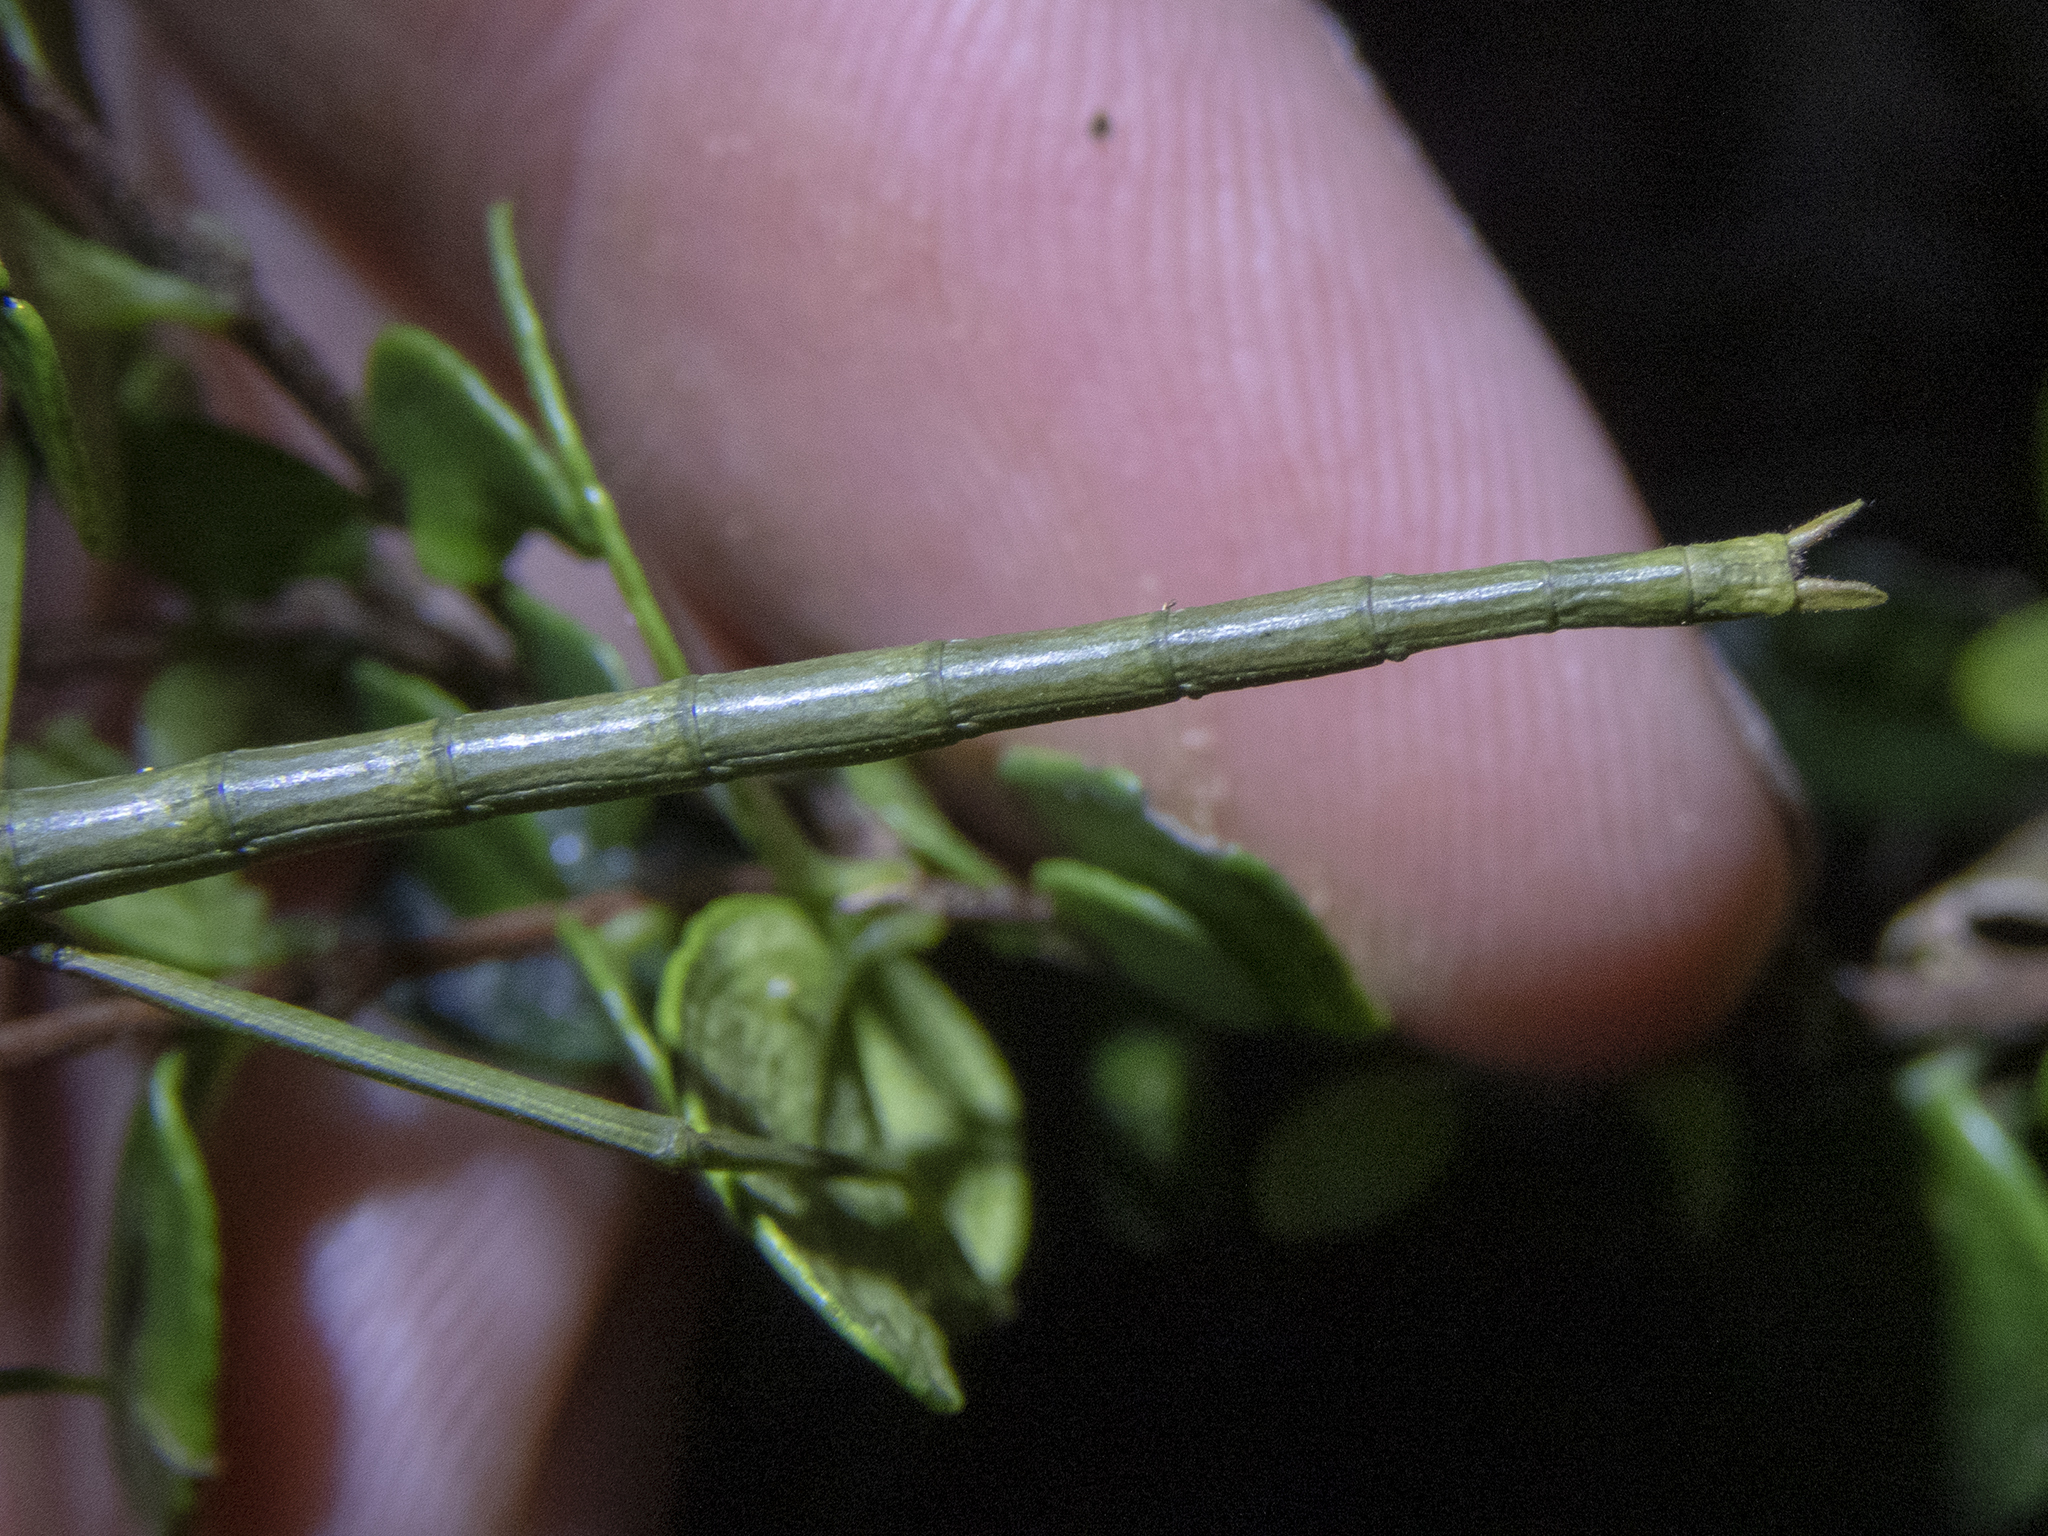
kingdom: Animalia
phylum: Arthropoda
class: Insecta
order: Phasmida
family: Phasmatidae
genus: Clitarchus
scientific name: Clitarchus hookeri
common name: Smooth stick insect
